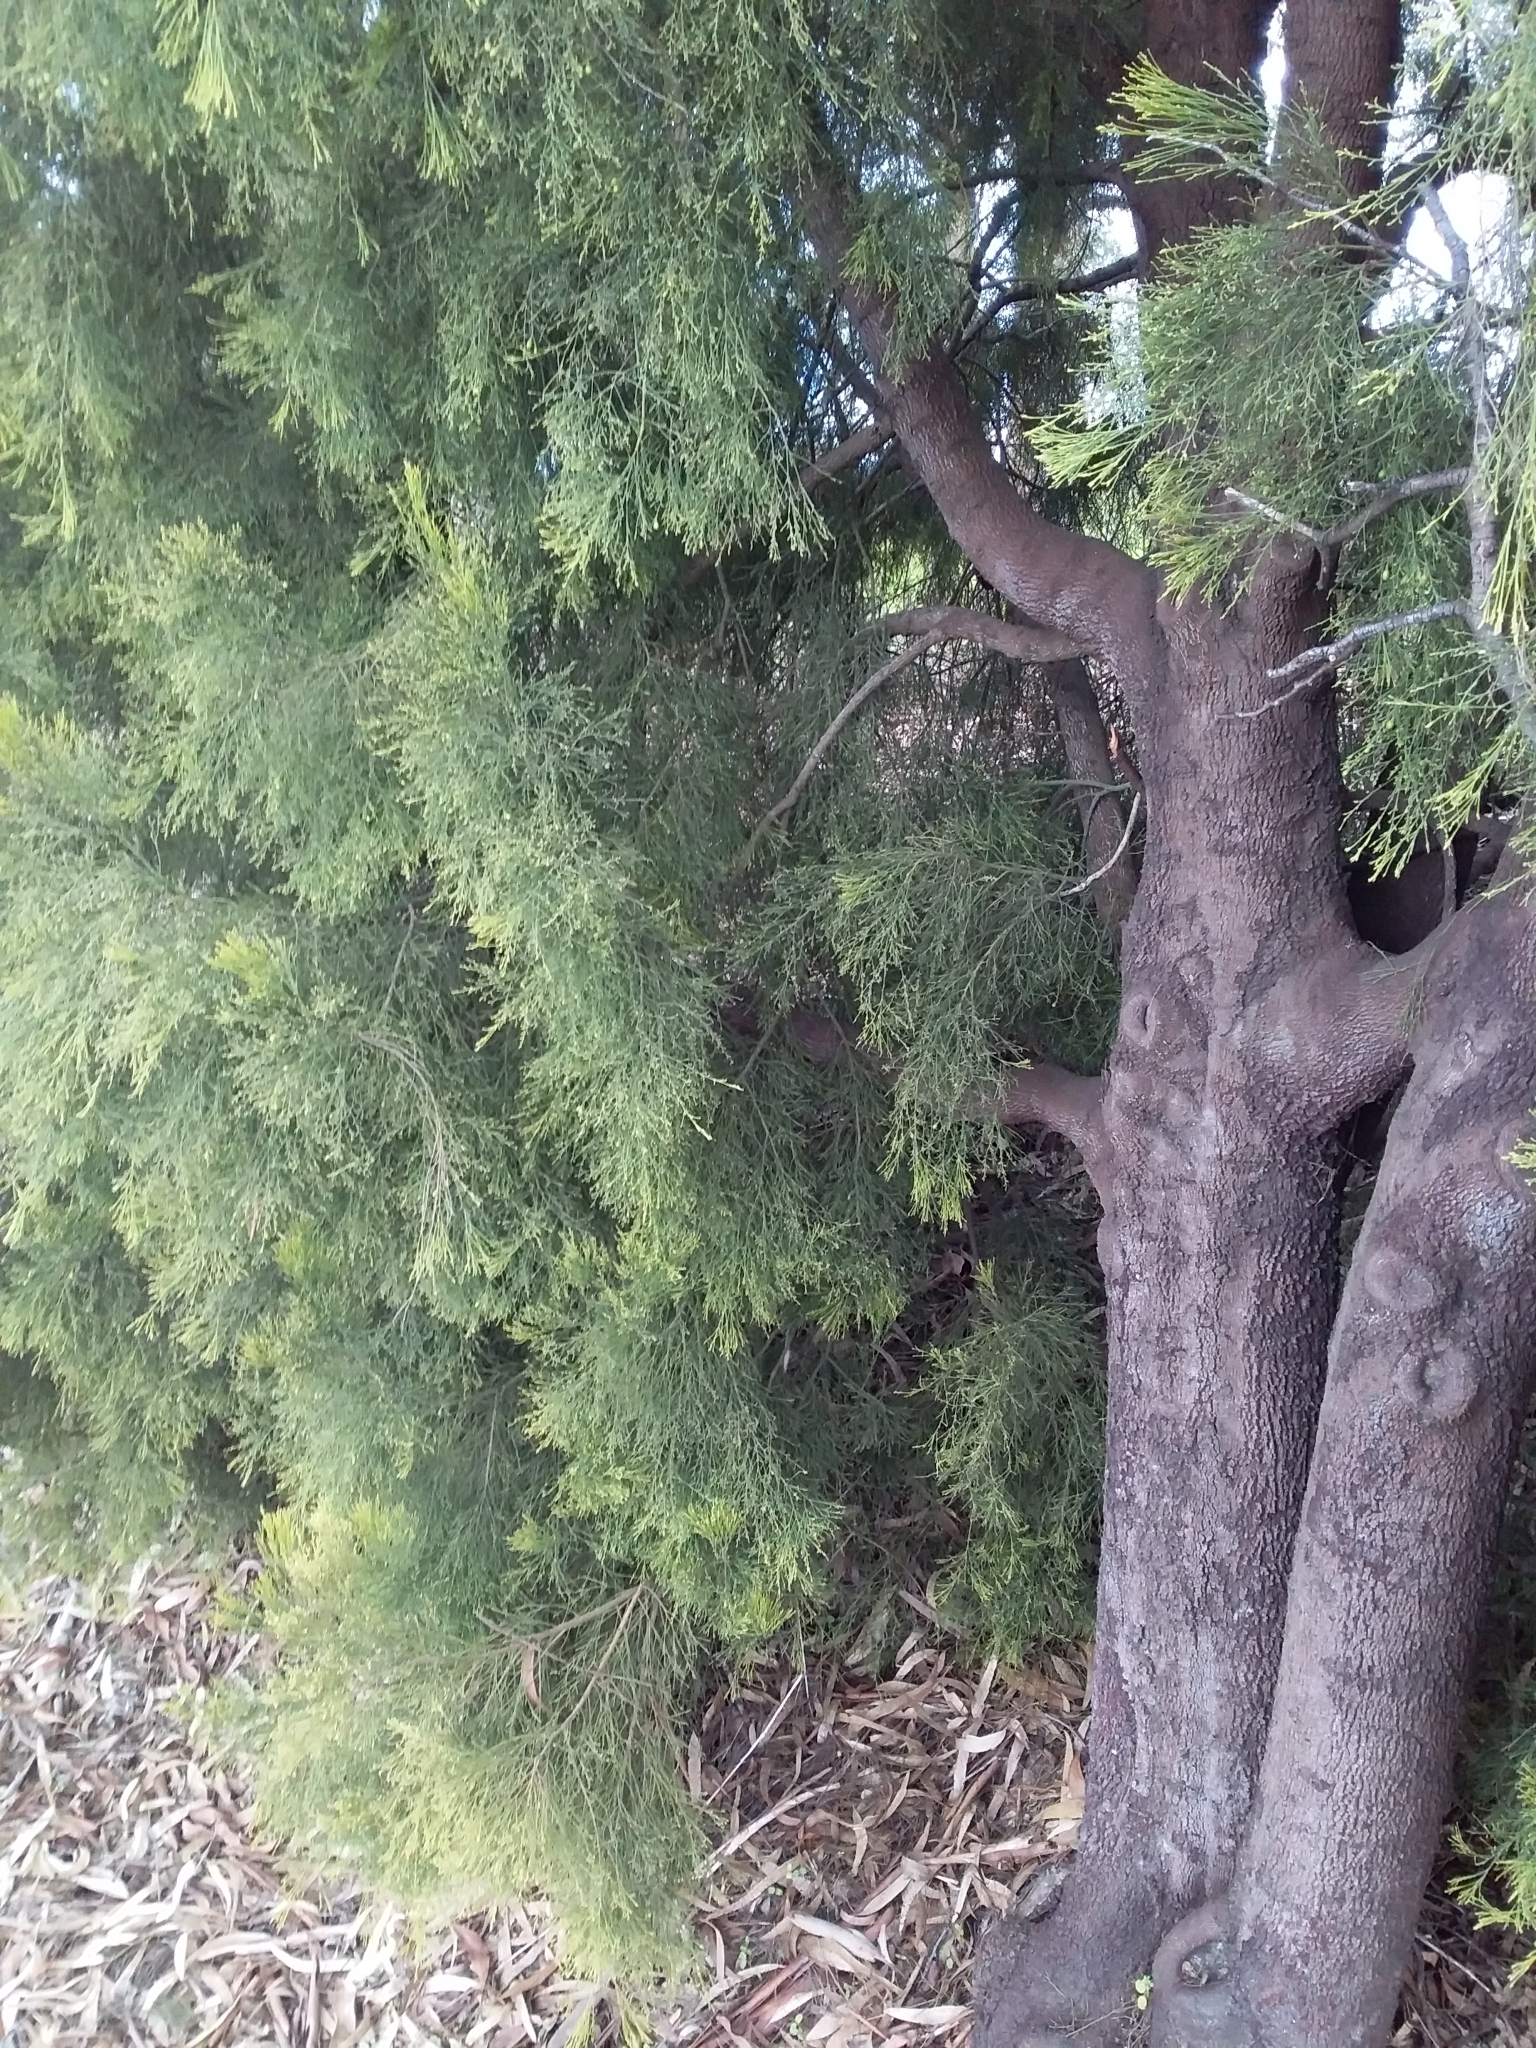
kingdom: Plantae
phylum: Tracheophyta
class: Magnoliopsida
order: Santalales
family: Santalaceae
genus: Exocarpos
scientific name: Exocarpos cupressiformis
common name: Cherry ballart
